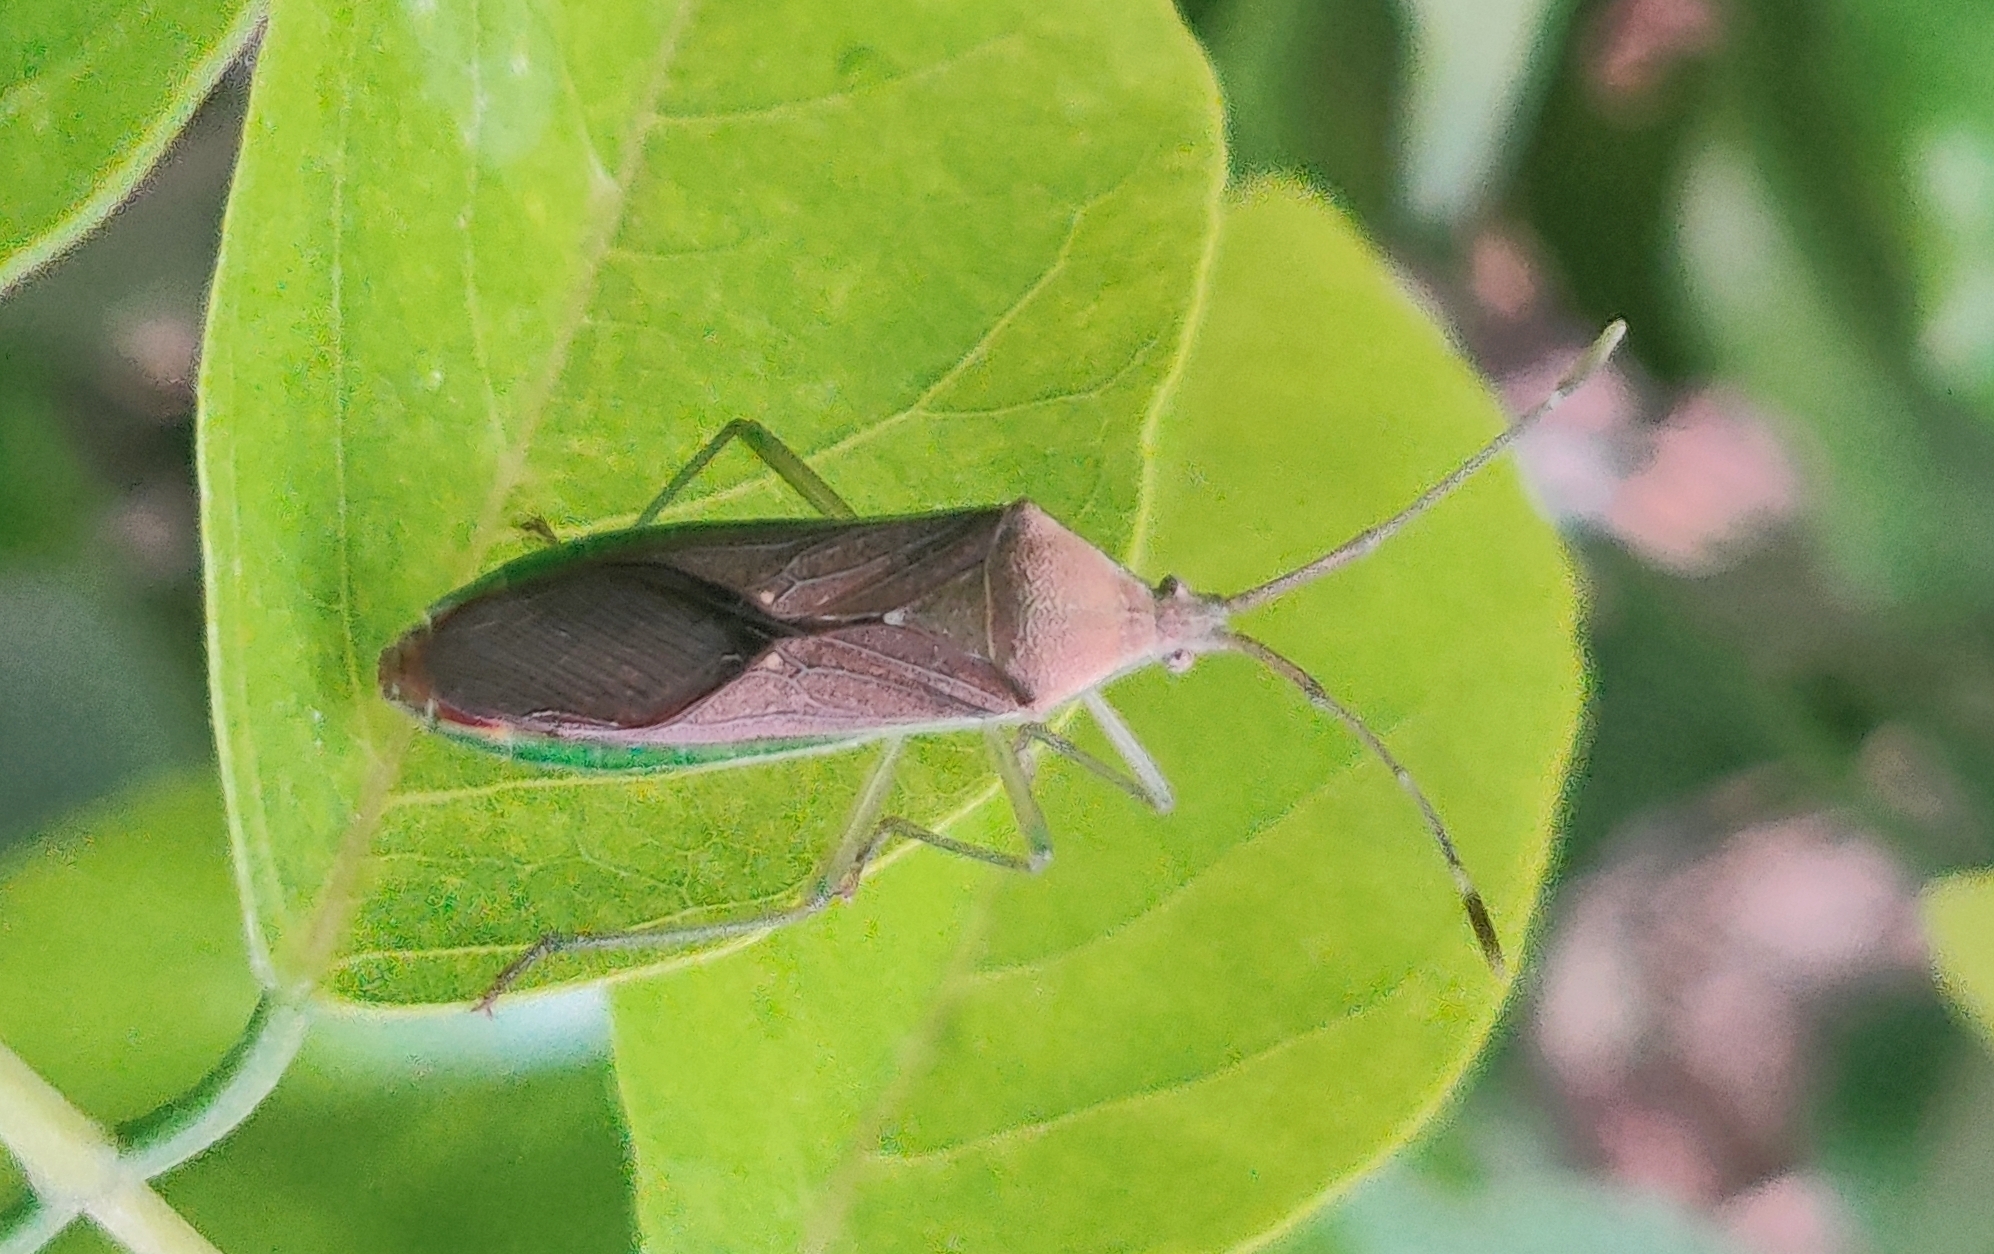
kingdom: Animalia
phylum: Arthropoda
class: Insecta
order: Hemiptera
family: Coreidae
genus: Homoeocerus
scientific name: Homoeocerus relatus
